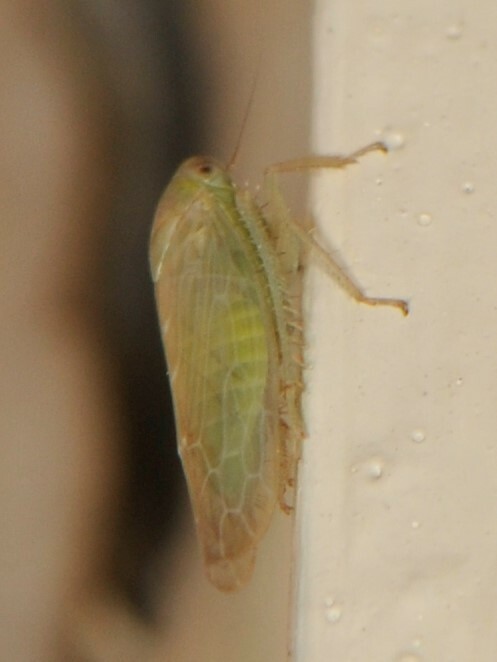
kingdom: Animalia
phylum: Arthropoda
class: Insecta
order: Hemiptera
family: Cicadellidae
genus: Chlorotettix
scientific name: Chlorotettix
